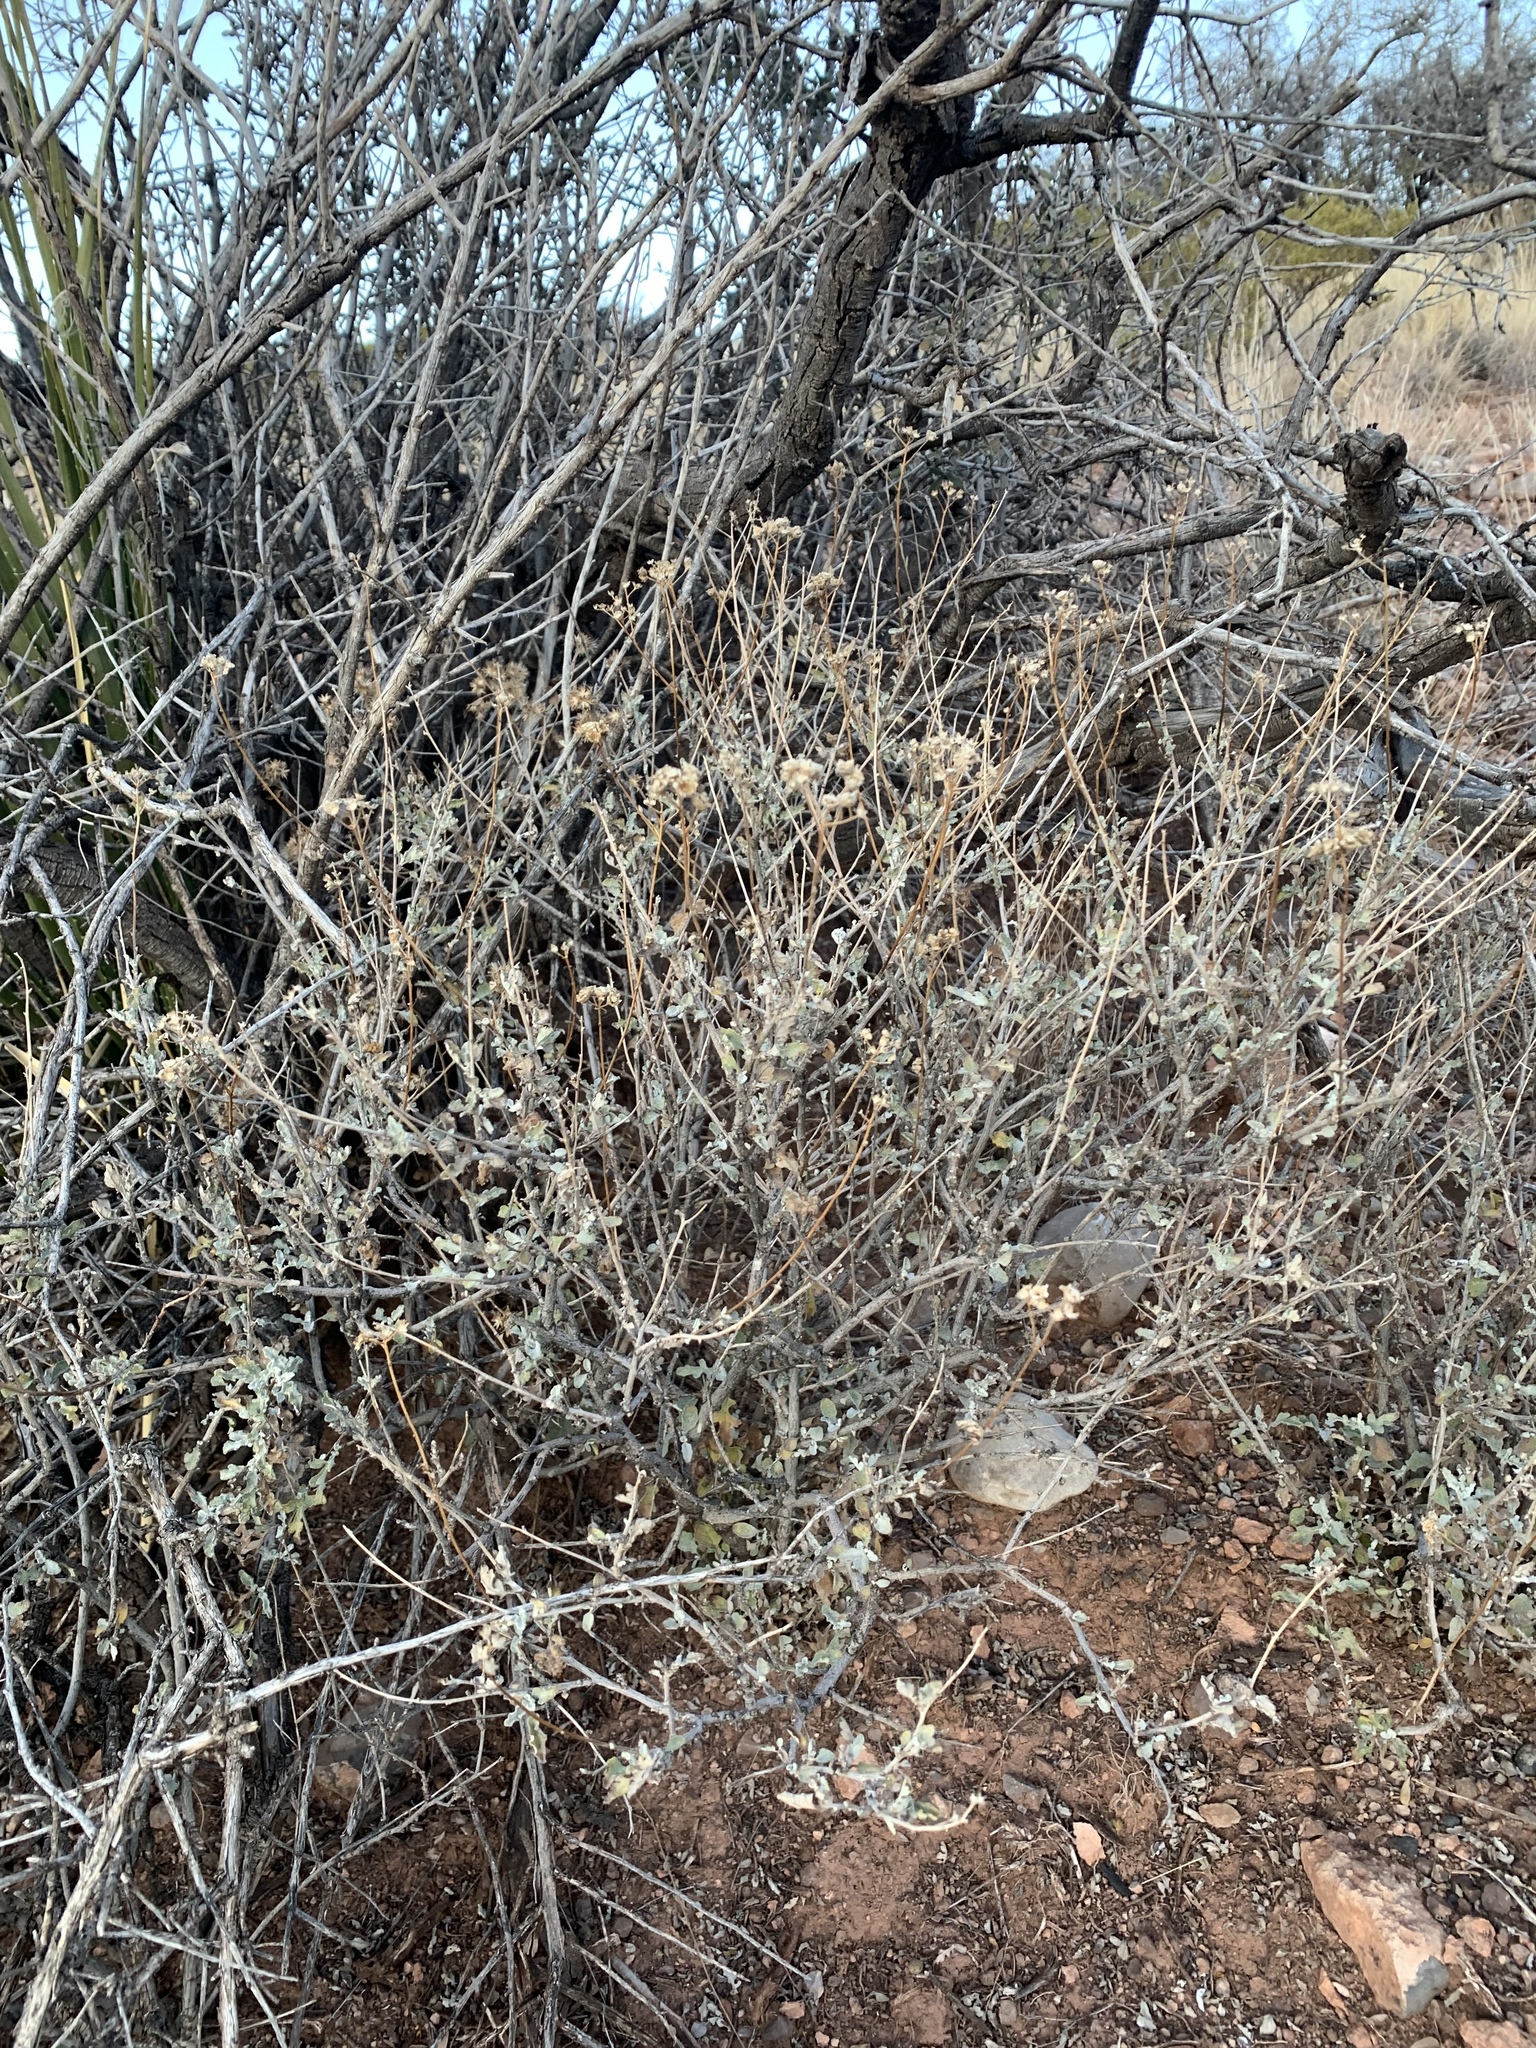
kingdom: Plantae
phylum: Tracheophyta
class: Magnoliopsida
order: Asterales
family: Asteraceae
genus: Parthenium
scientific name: Parthenium incanum
